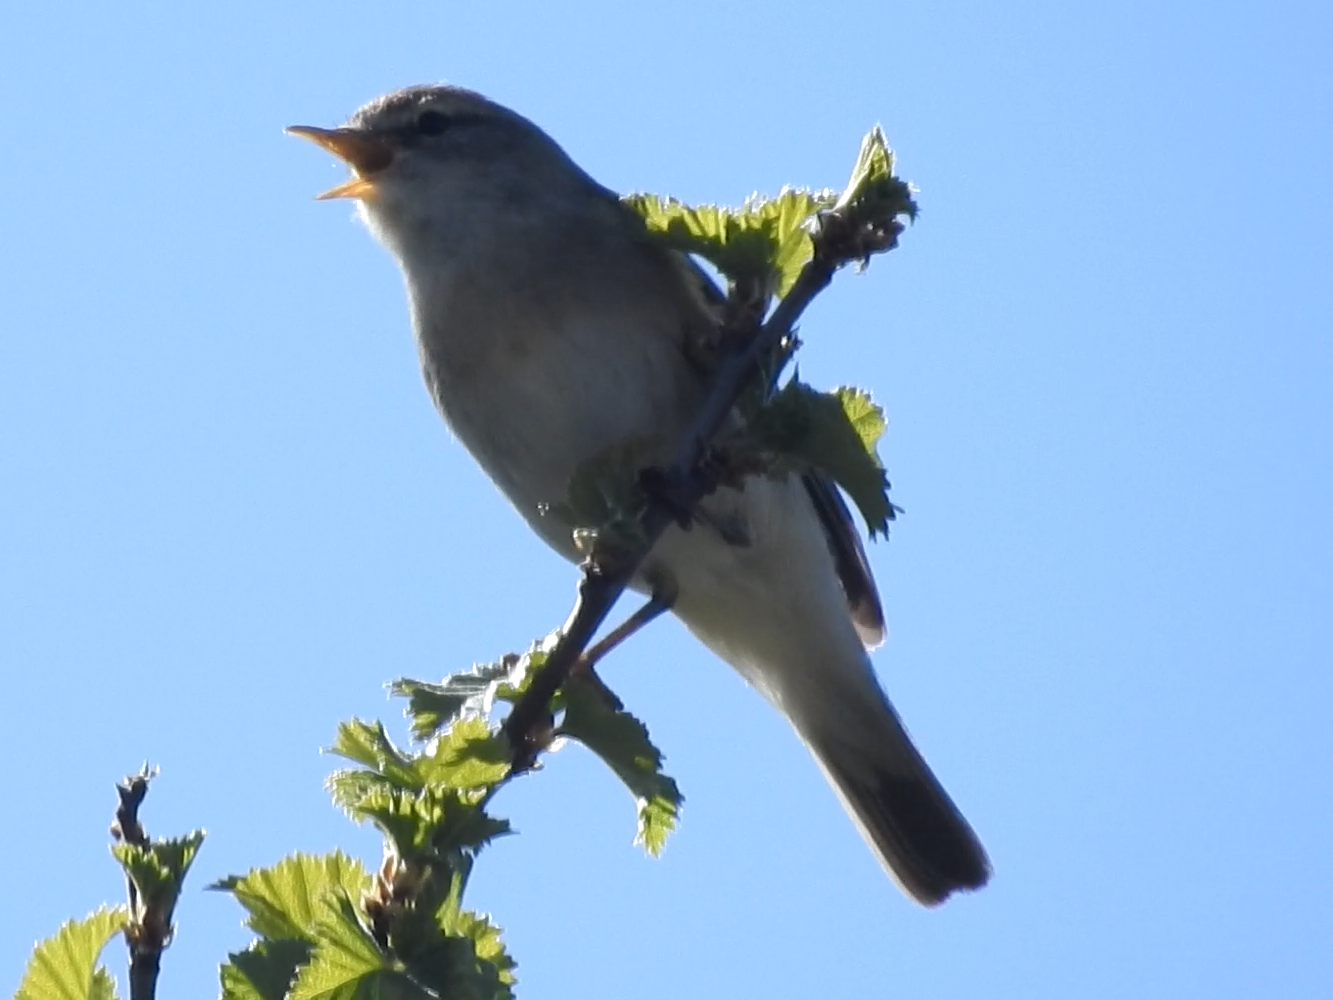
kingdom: Animalia
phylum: Chordata
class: Aves
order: Passeriformes
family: Phylloscopidae
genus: Phylloscopus
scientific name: Phylloscopus trochilus
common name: Willow warbler
